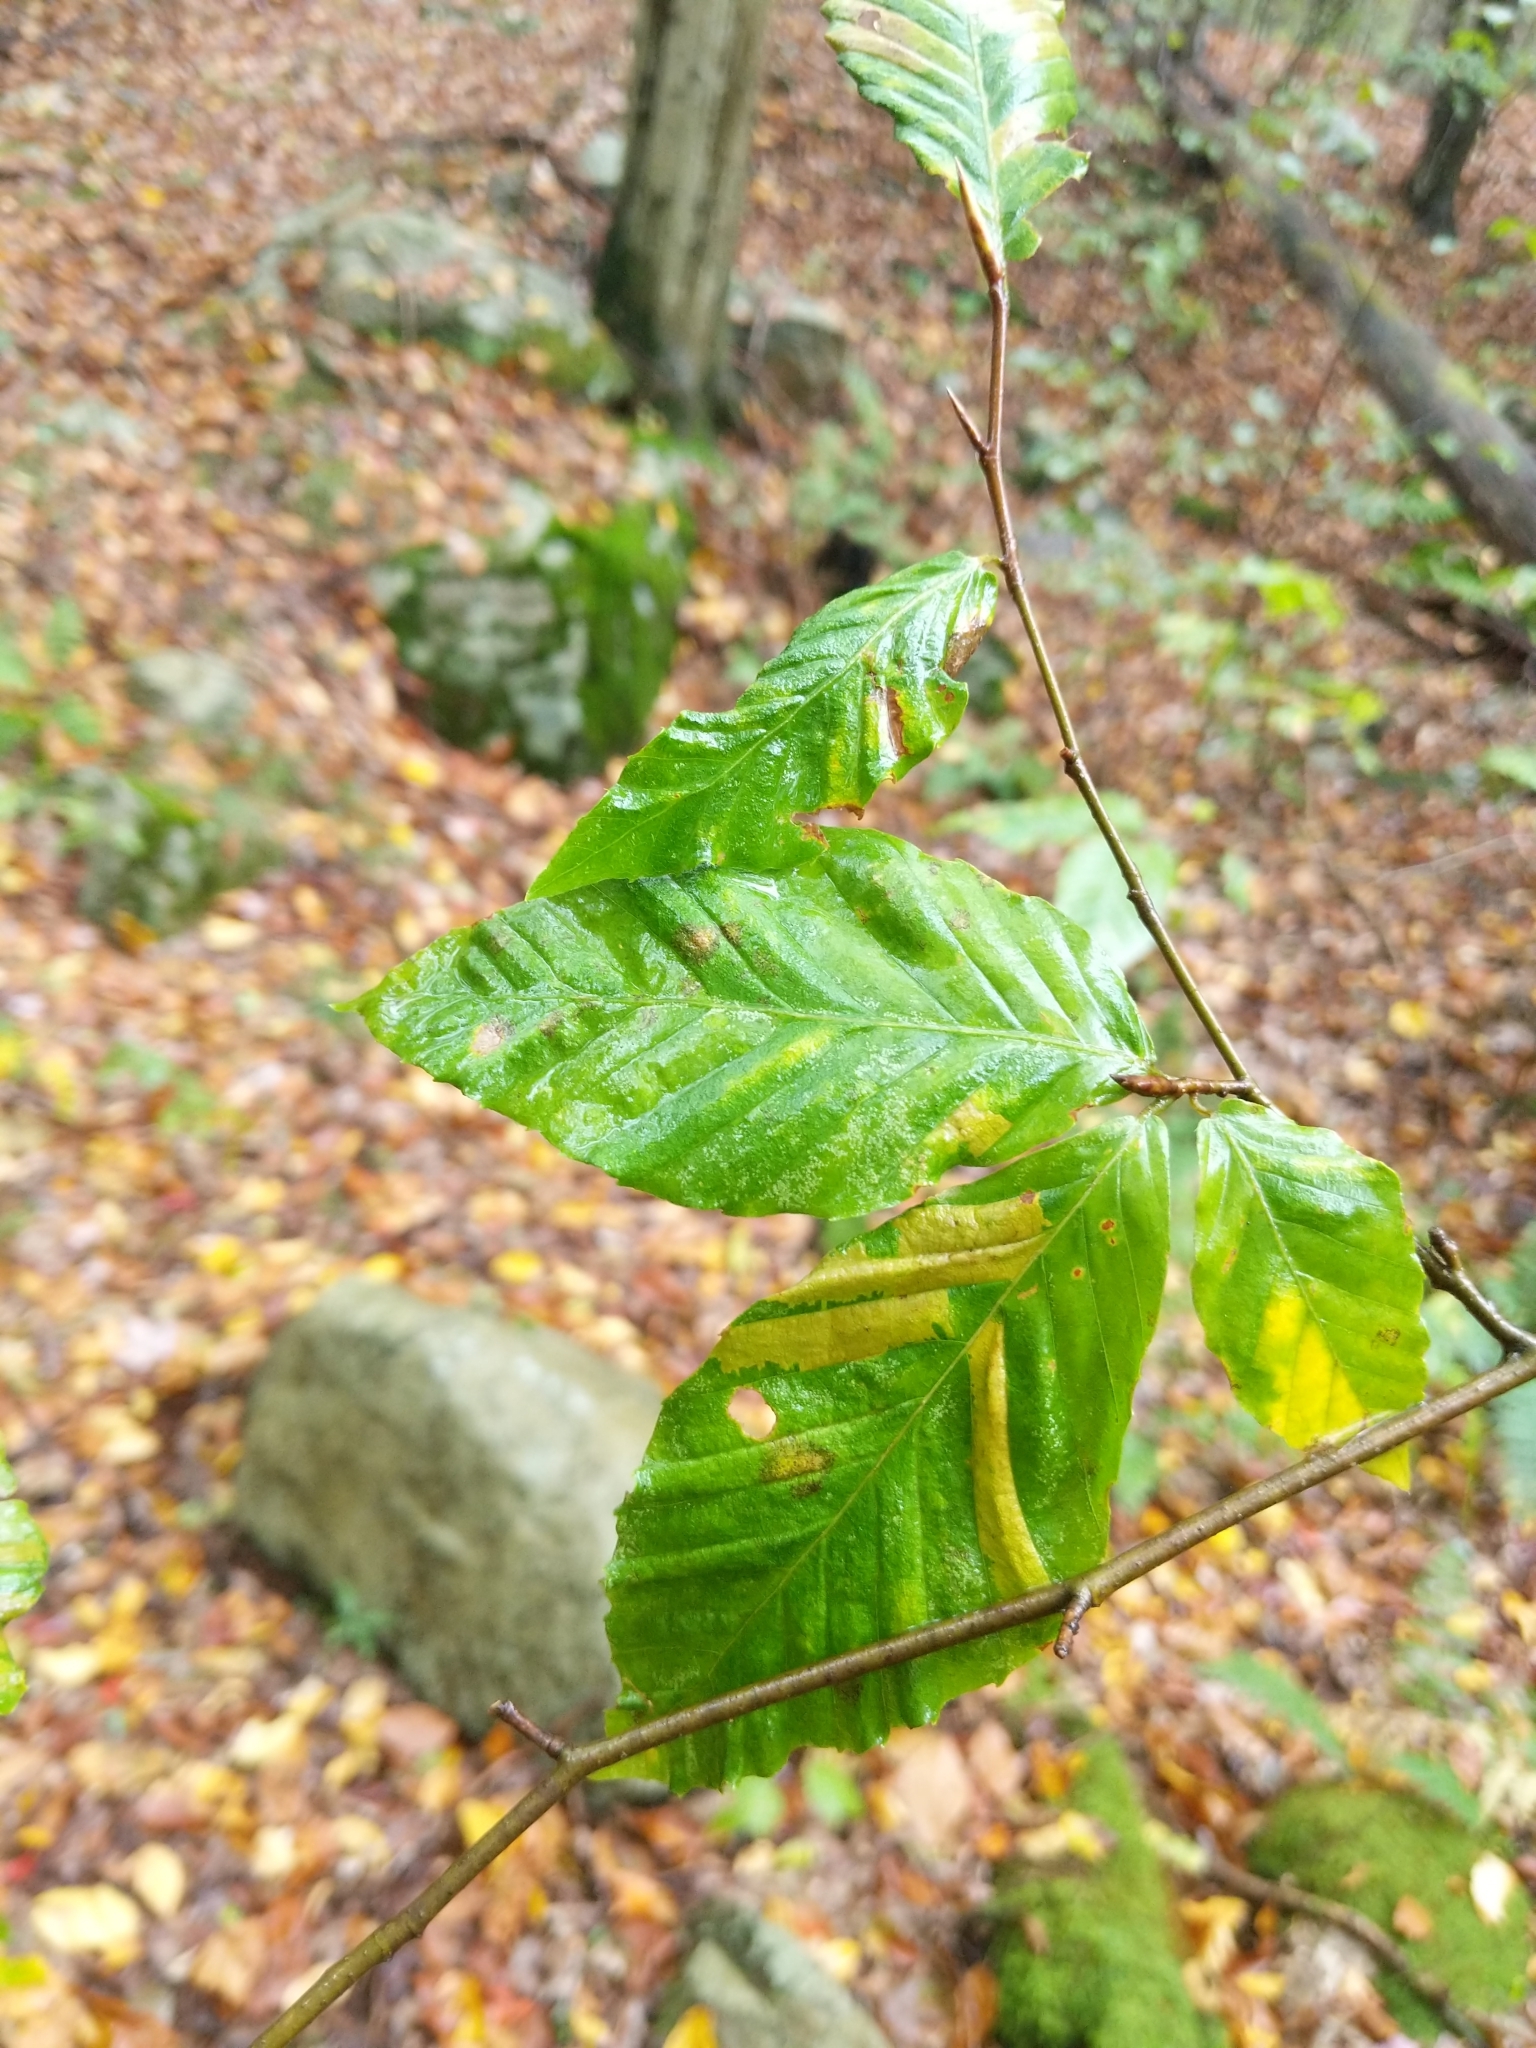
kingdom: Animalia
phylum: Nematoda
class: Chromadorea
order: Rhabditida
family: Anguinidae
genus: Litylenchus
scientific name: Litylenchus crenatae
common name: Beech leaf disease
